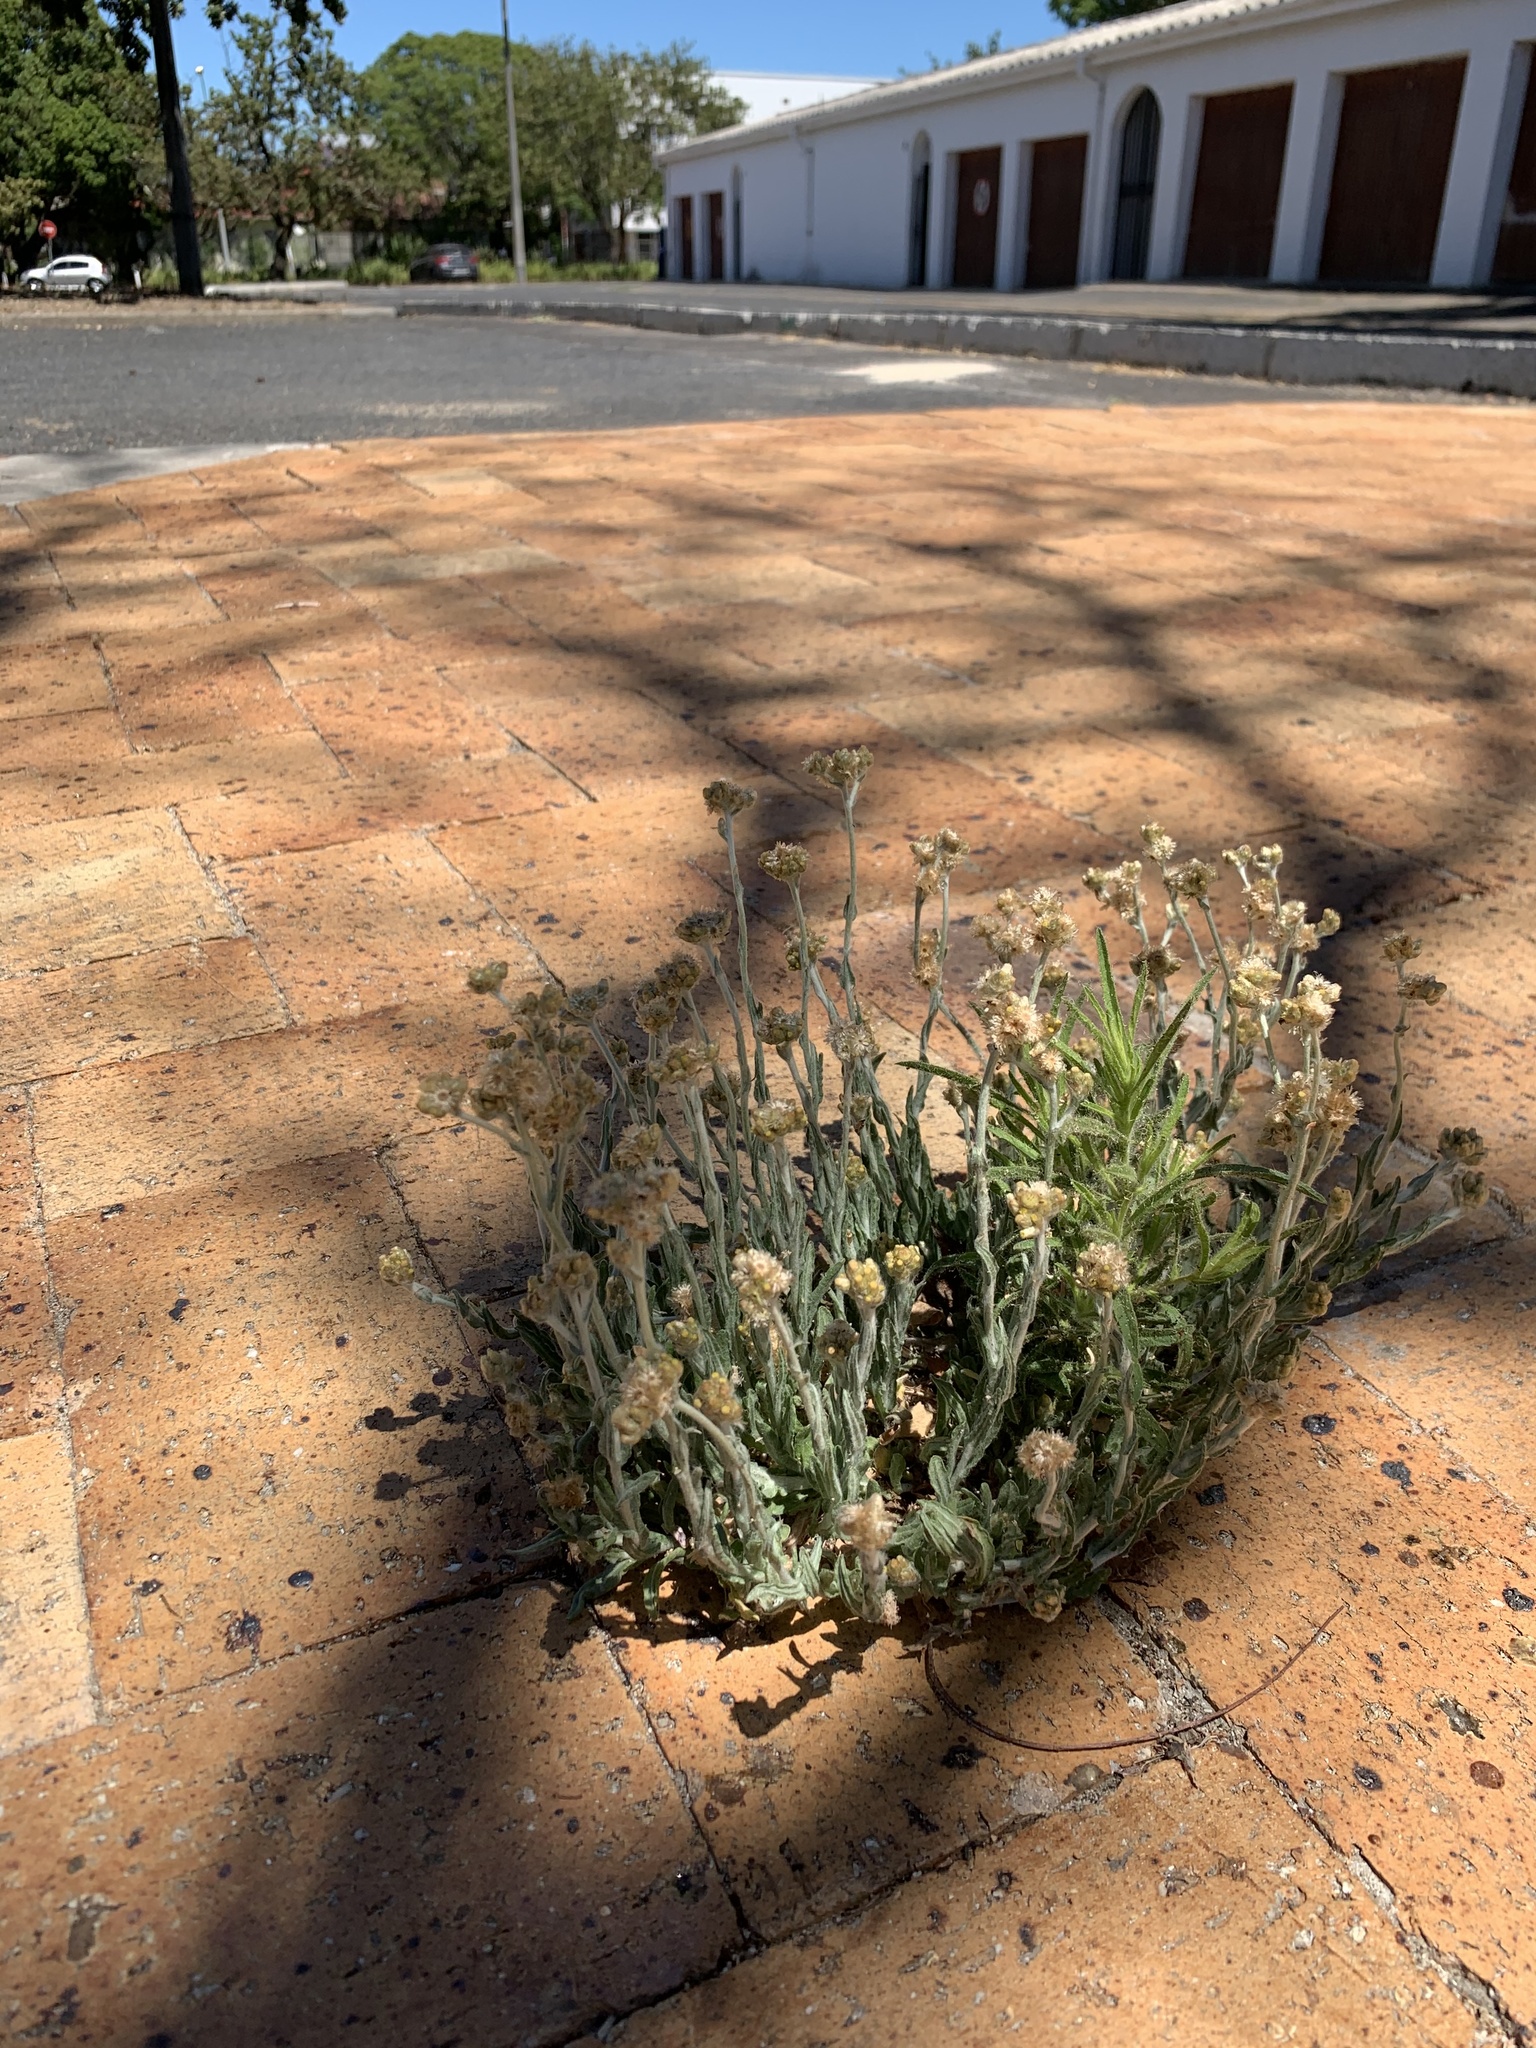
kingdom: Plantae
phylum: Tracheophyta
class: Magnoliopsida
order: Asterales
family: Asteraceae
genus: Helichrysum
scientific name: Helichrysum luteoalbum
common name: Daisy
